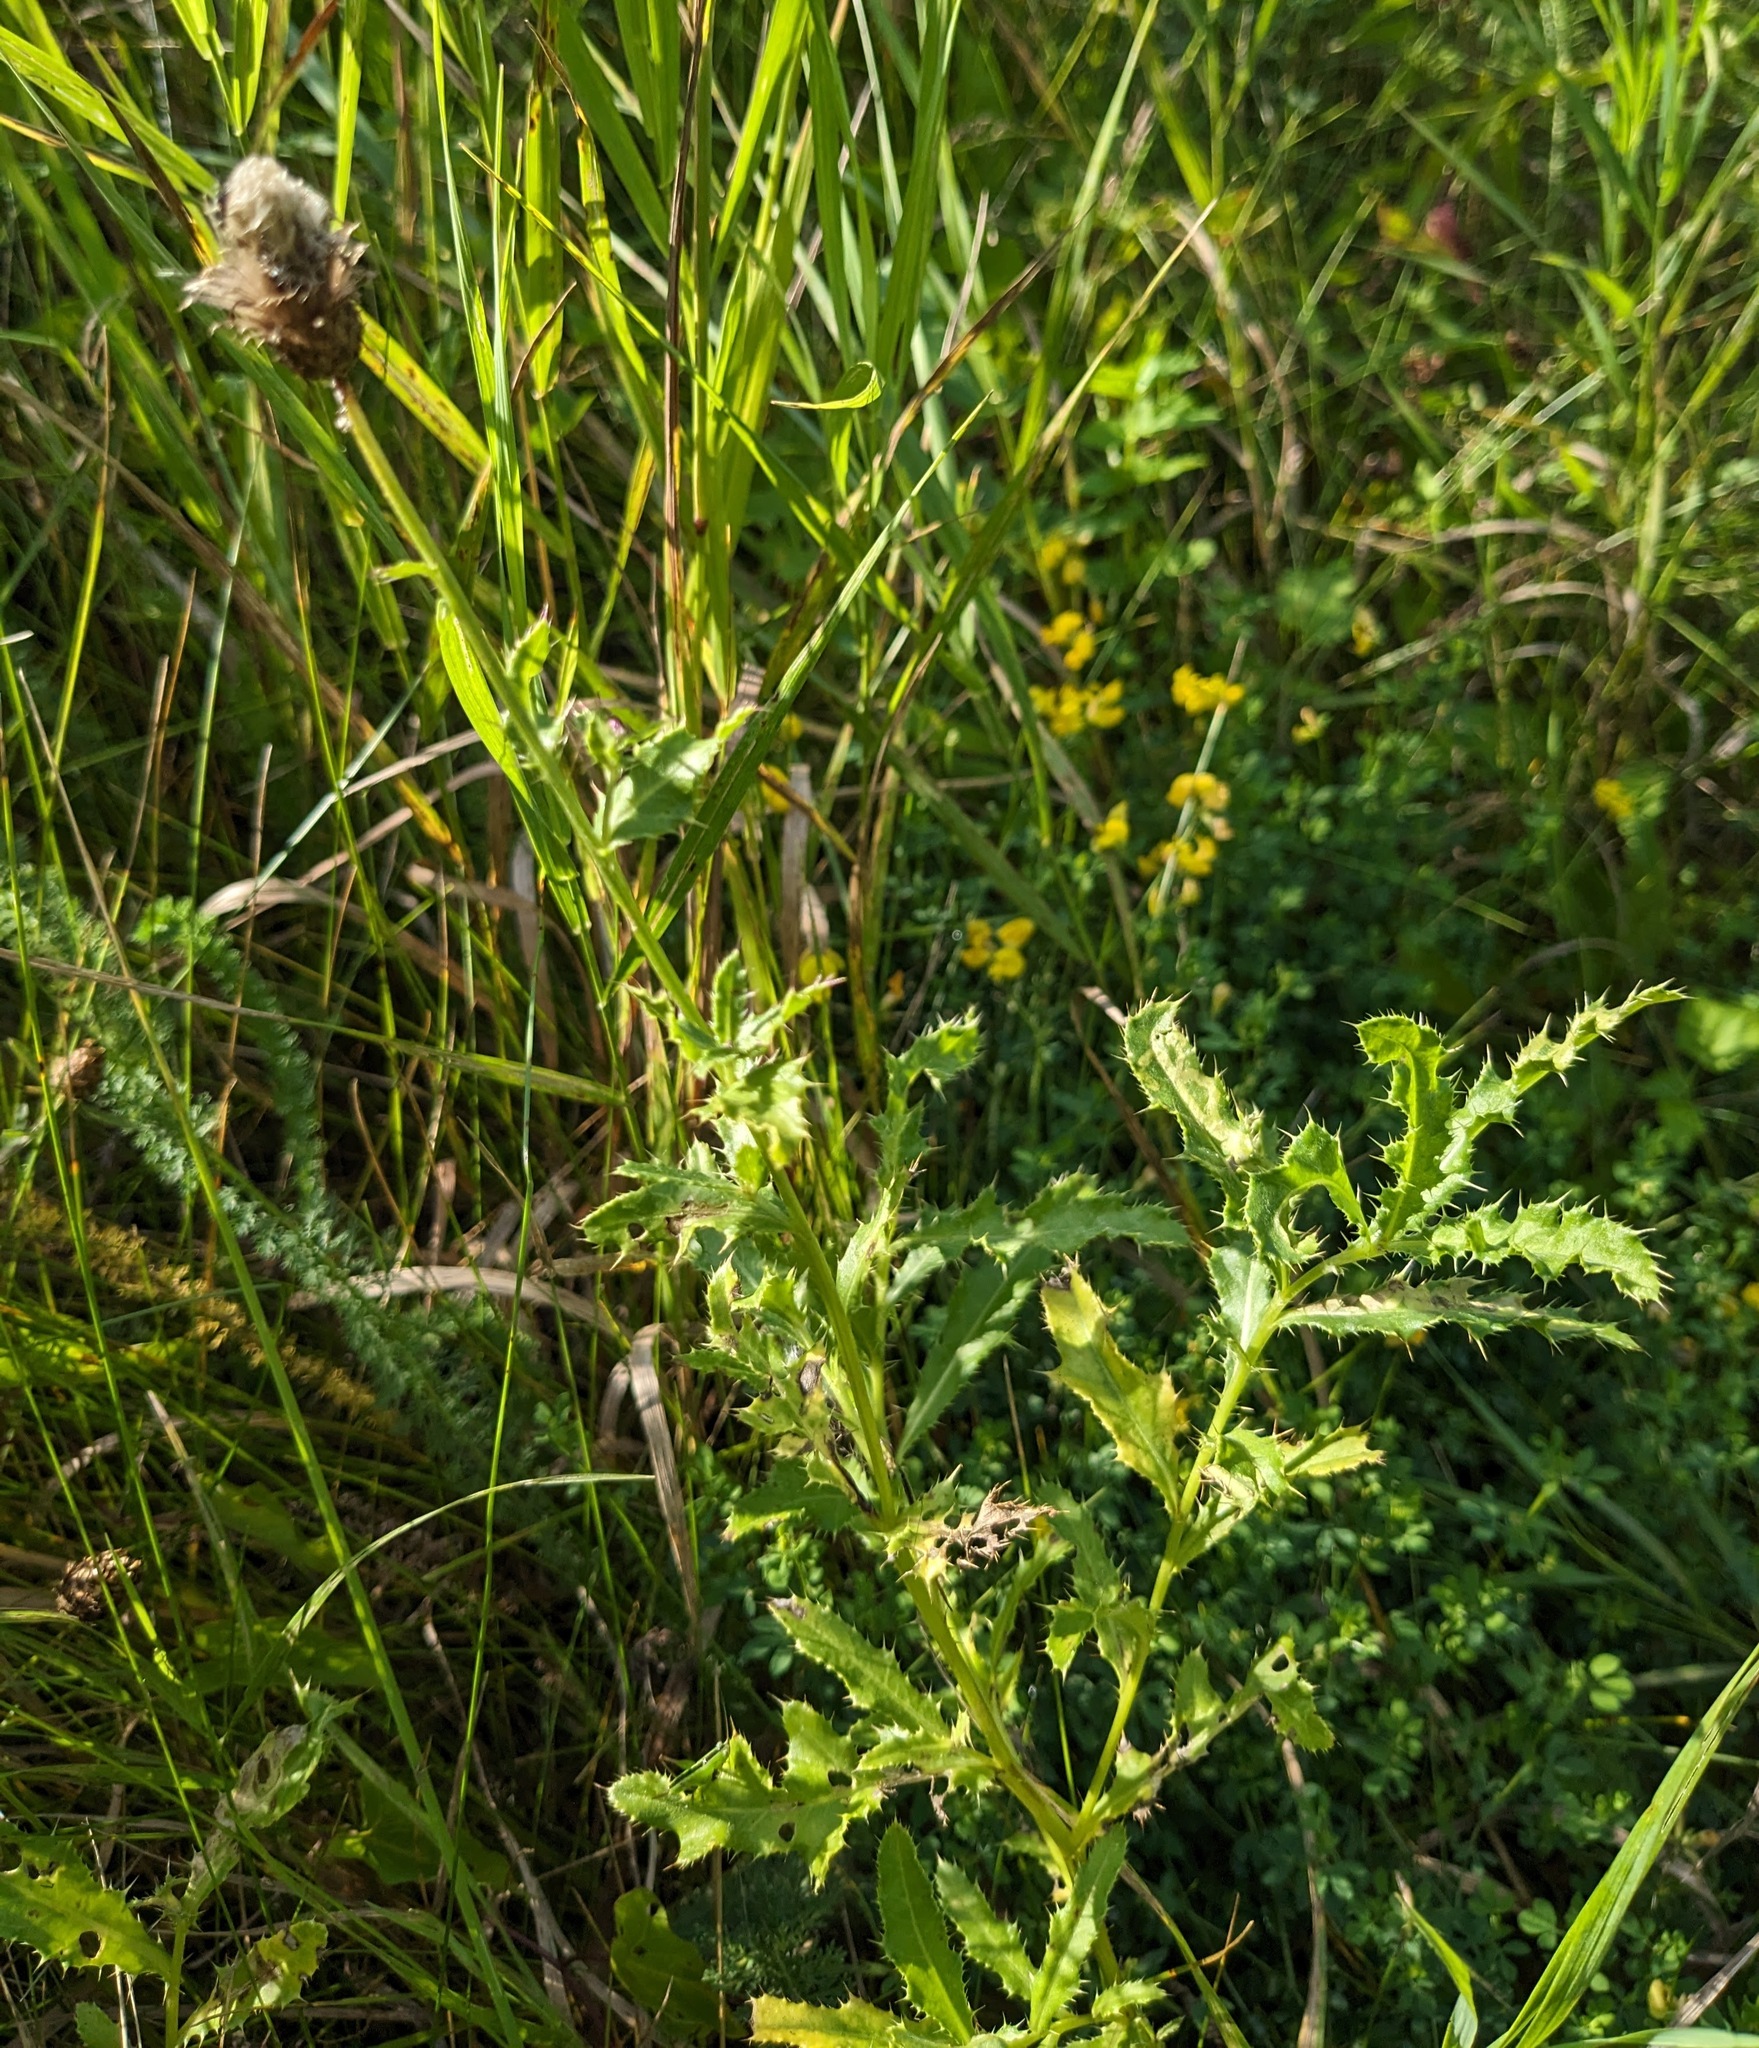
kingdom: Plantae
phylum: Tracheophyta
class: Magnoliopsida
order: Asterales
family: Asteraceae
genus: Cirsium
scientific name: Cirsium arvense
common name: Creeping thistle
